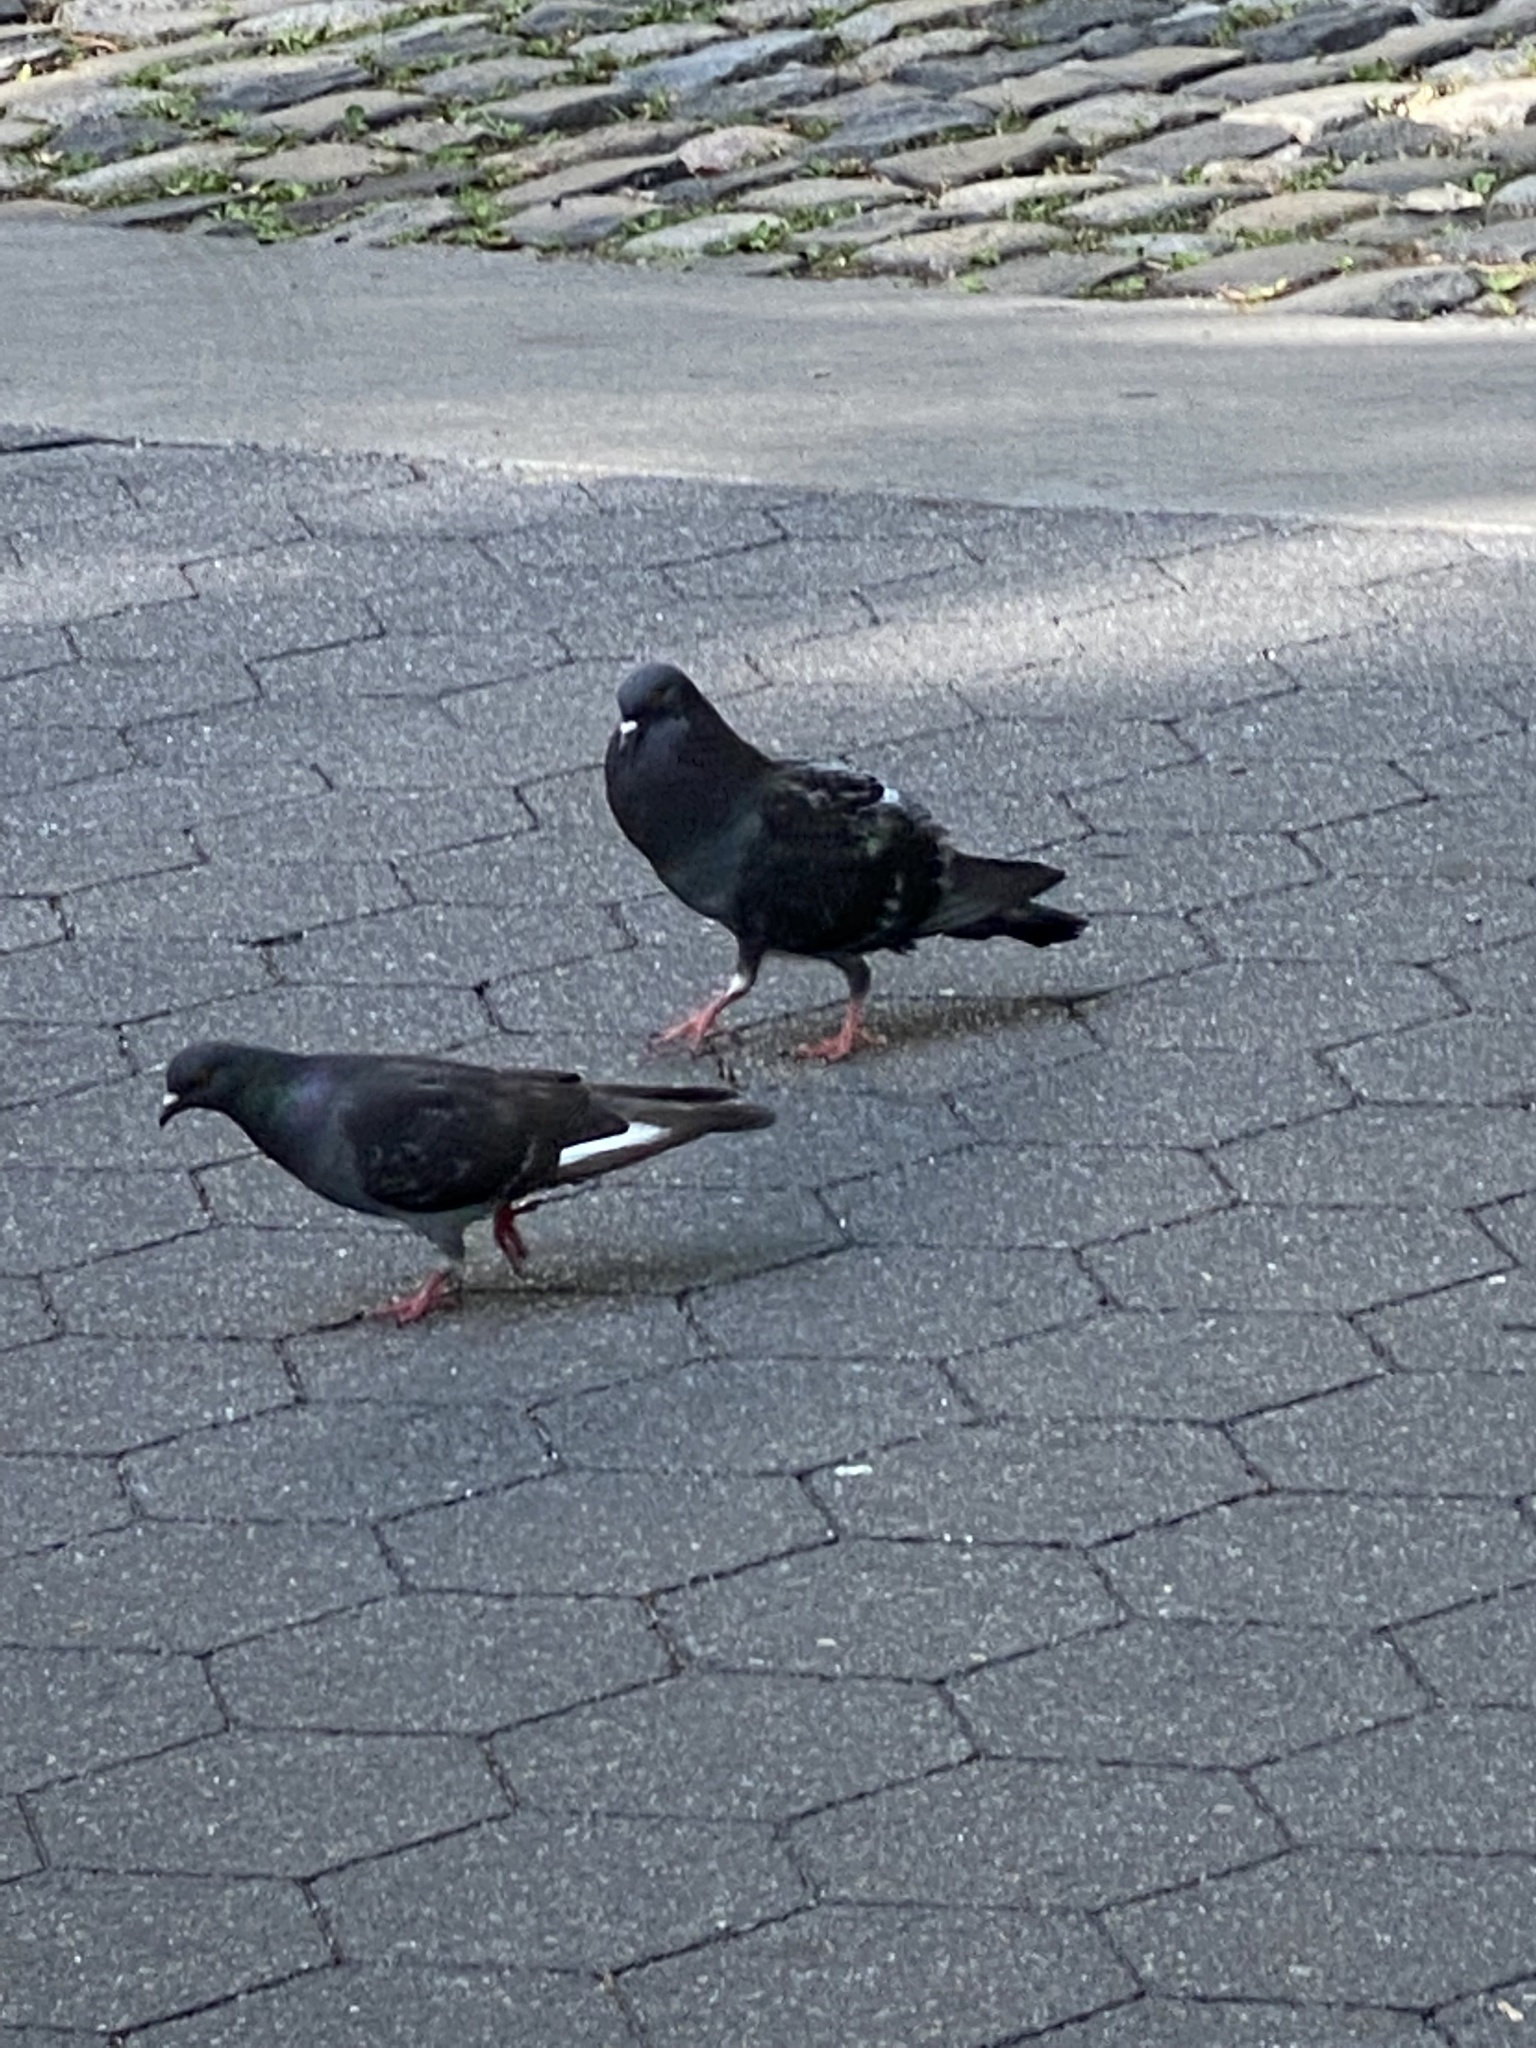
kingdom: Animalia
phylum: Chordata
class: Aves
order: Columbiformes
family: Columbidae
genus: Columba
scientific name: Columba livia
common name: Rock pigeon
